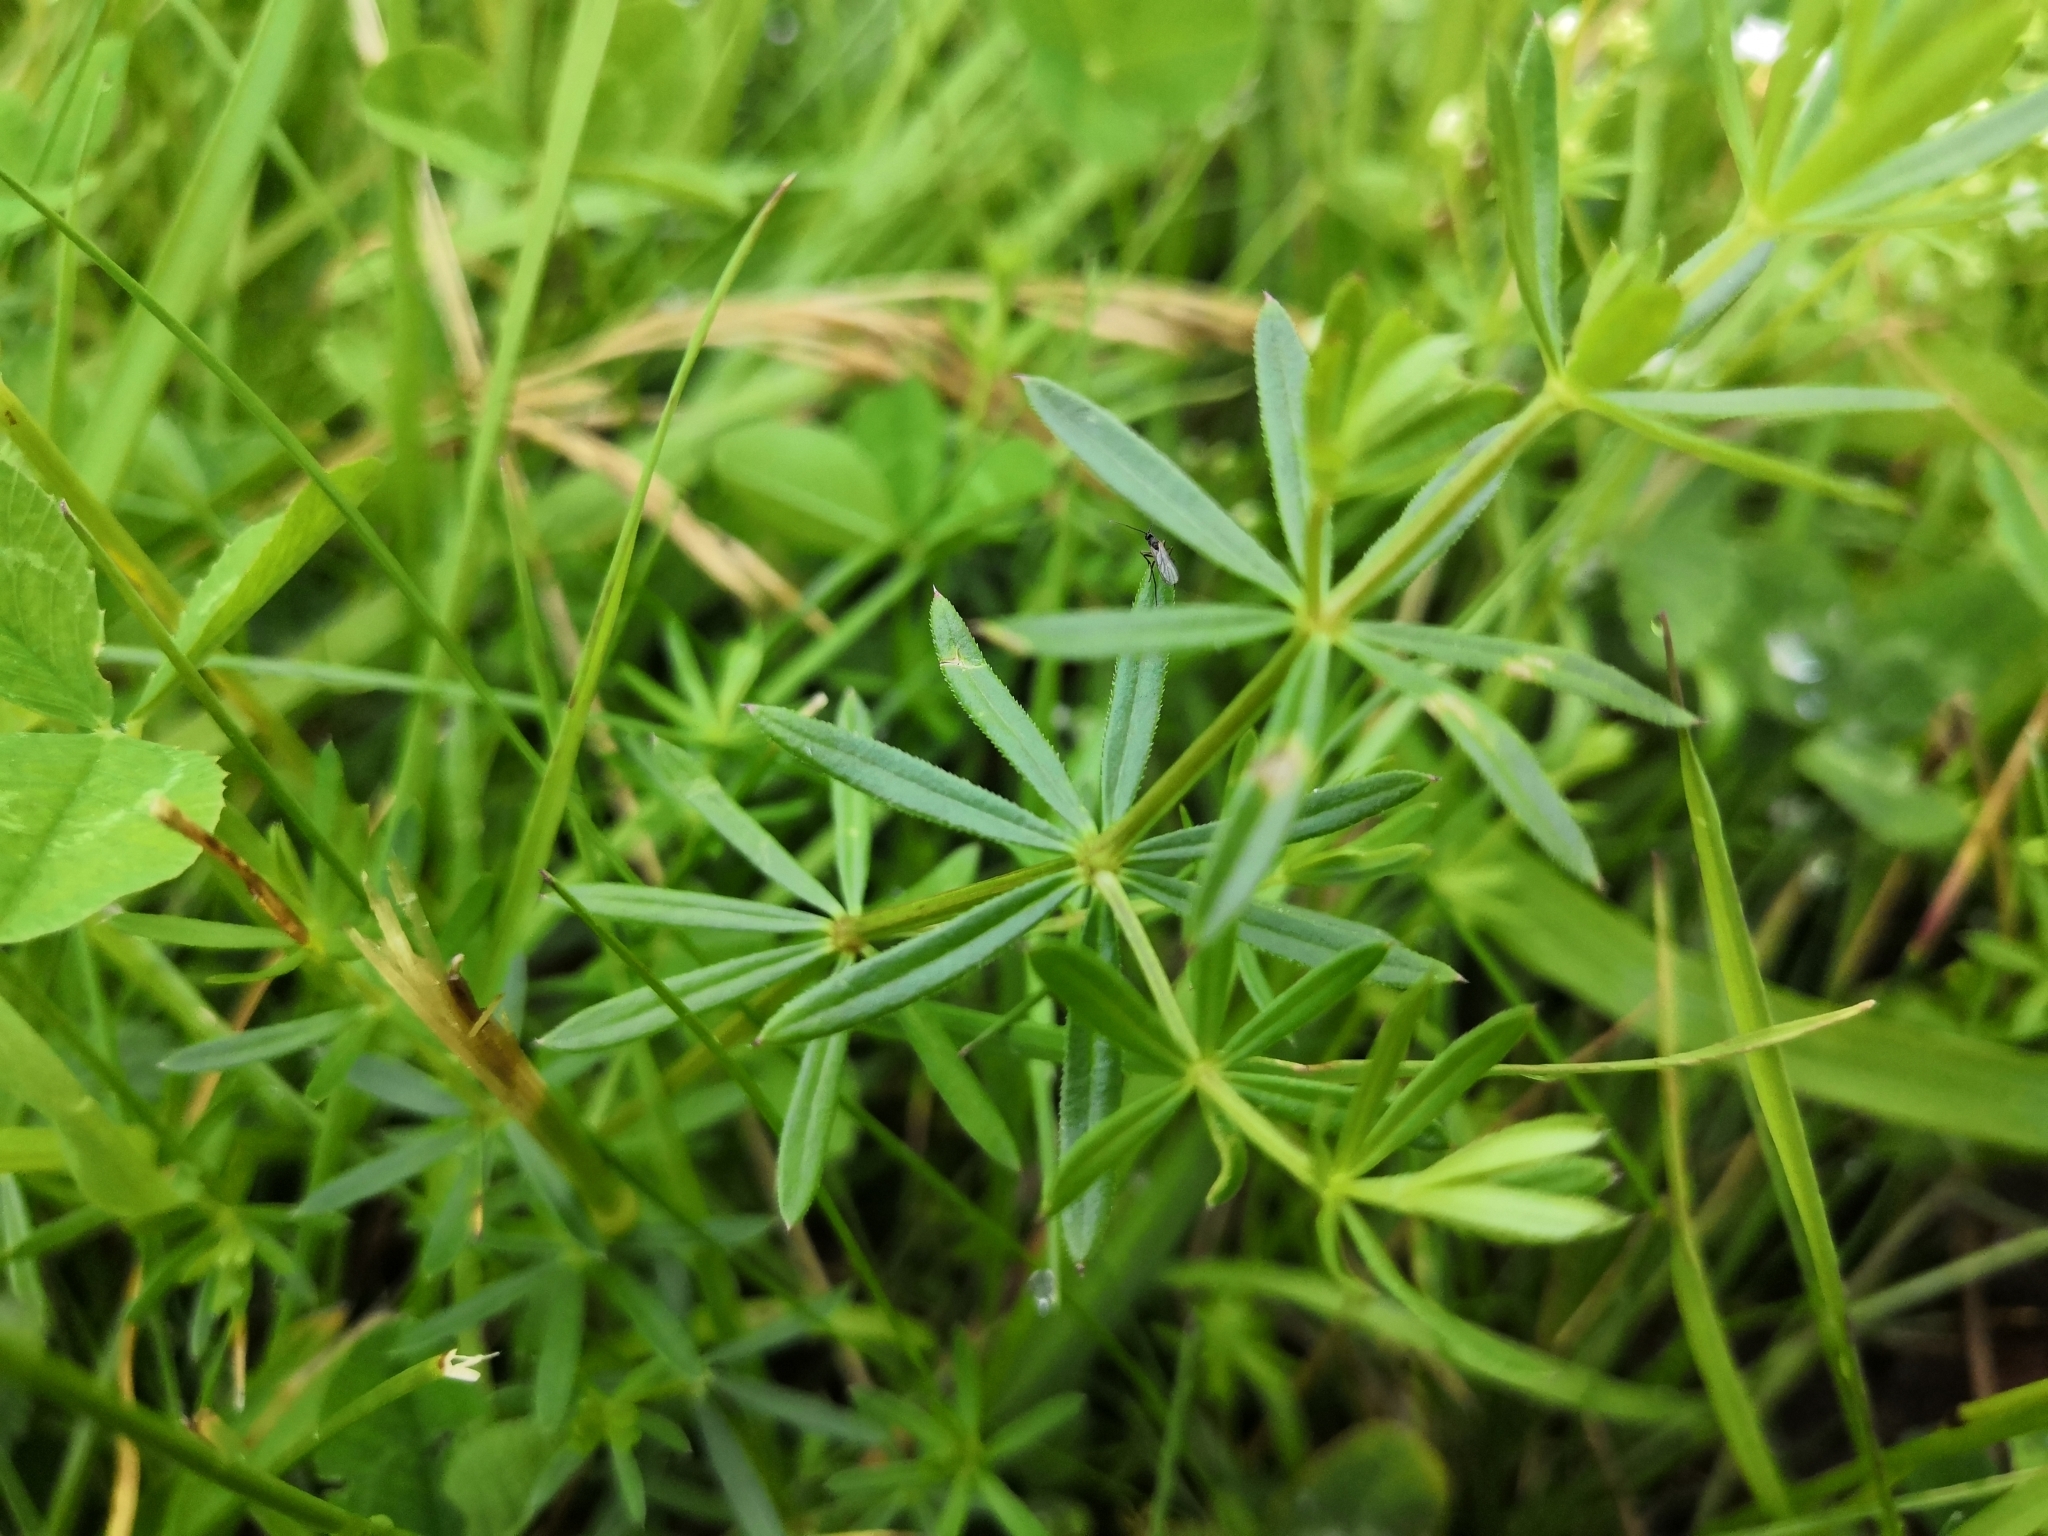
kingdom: Plantae
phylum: Tracheophyta
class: Magnoliopsida
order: Gentianales
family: Rubiaceae
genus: Galium
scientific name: Galium aparine
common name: Cleavers
